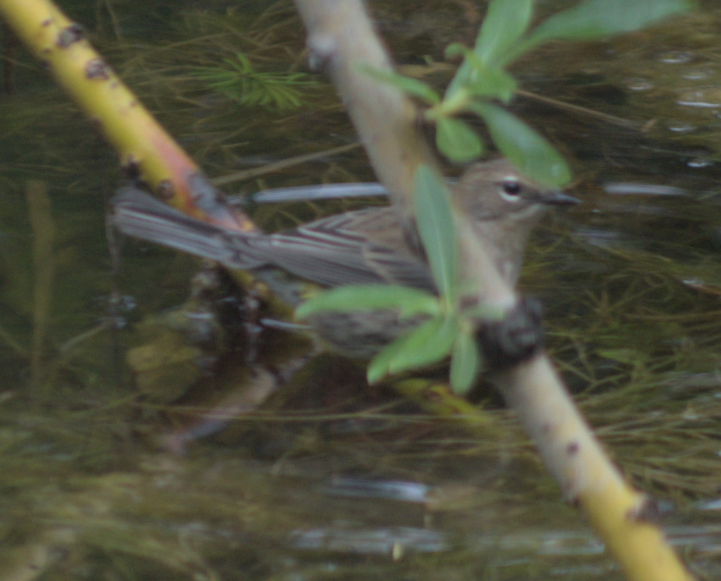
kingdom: Animalia
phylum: Chordata
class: Aves
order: Passeriformes
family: Parulidae
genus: Setophaga
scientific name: Setophaga coronata
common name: Myrtle warbler
